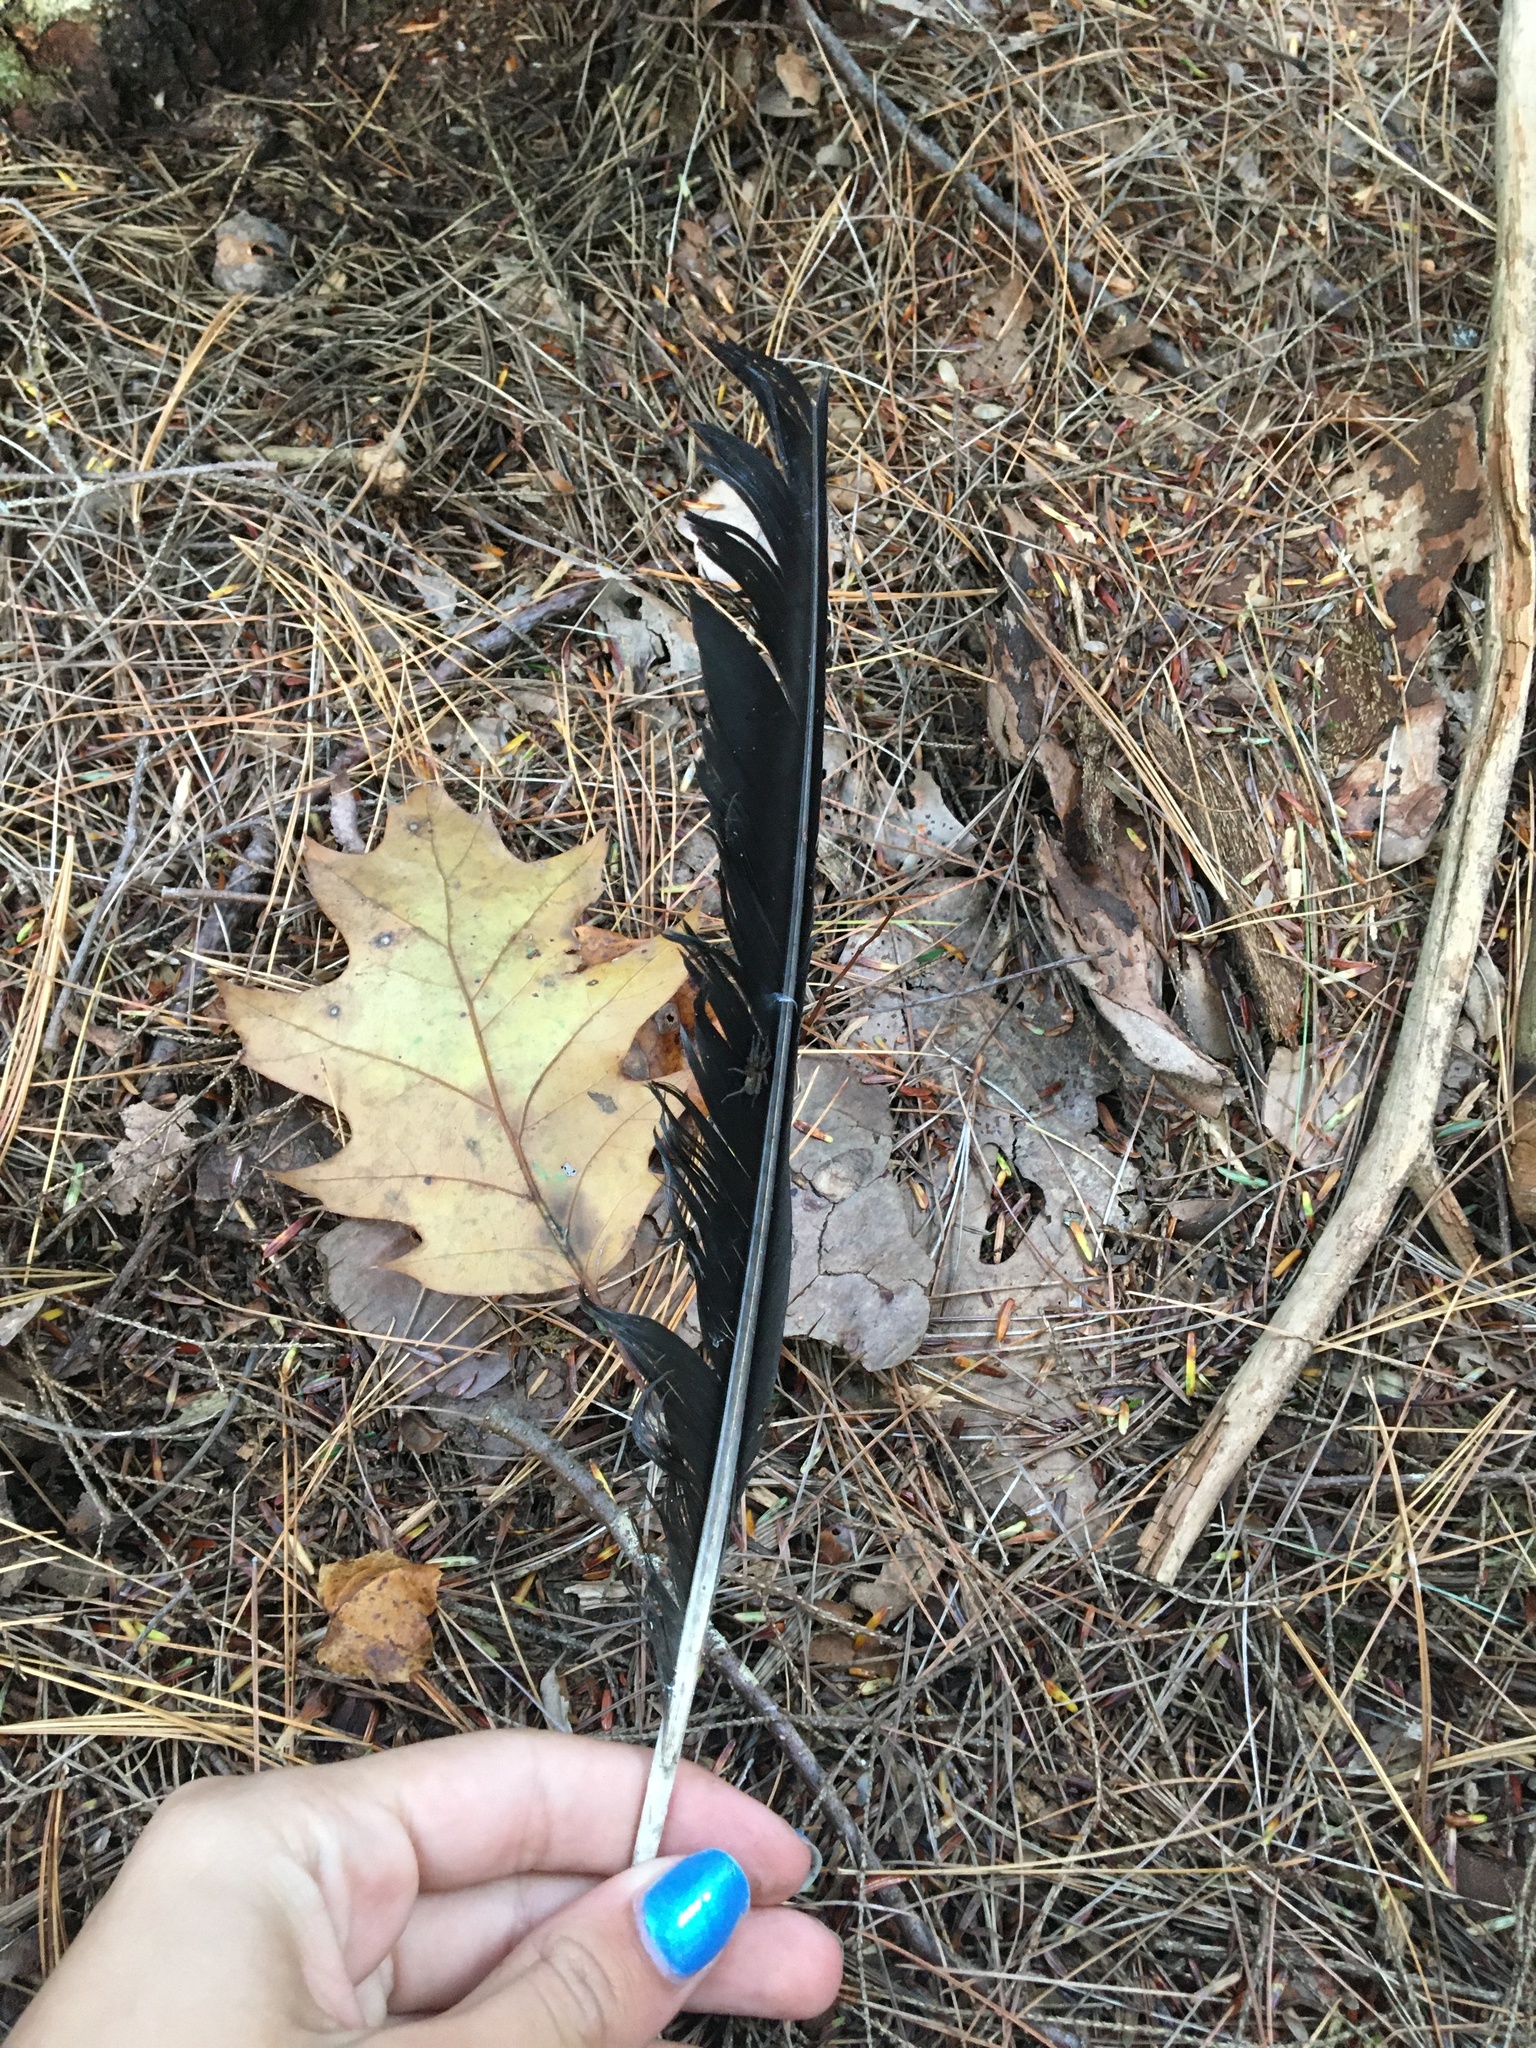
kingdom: Animalia
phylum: Chordata
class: Aves
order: Passeriformes
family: Corvidae
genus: Corvus
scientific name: Corvus
